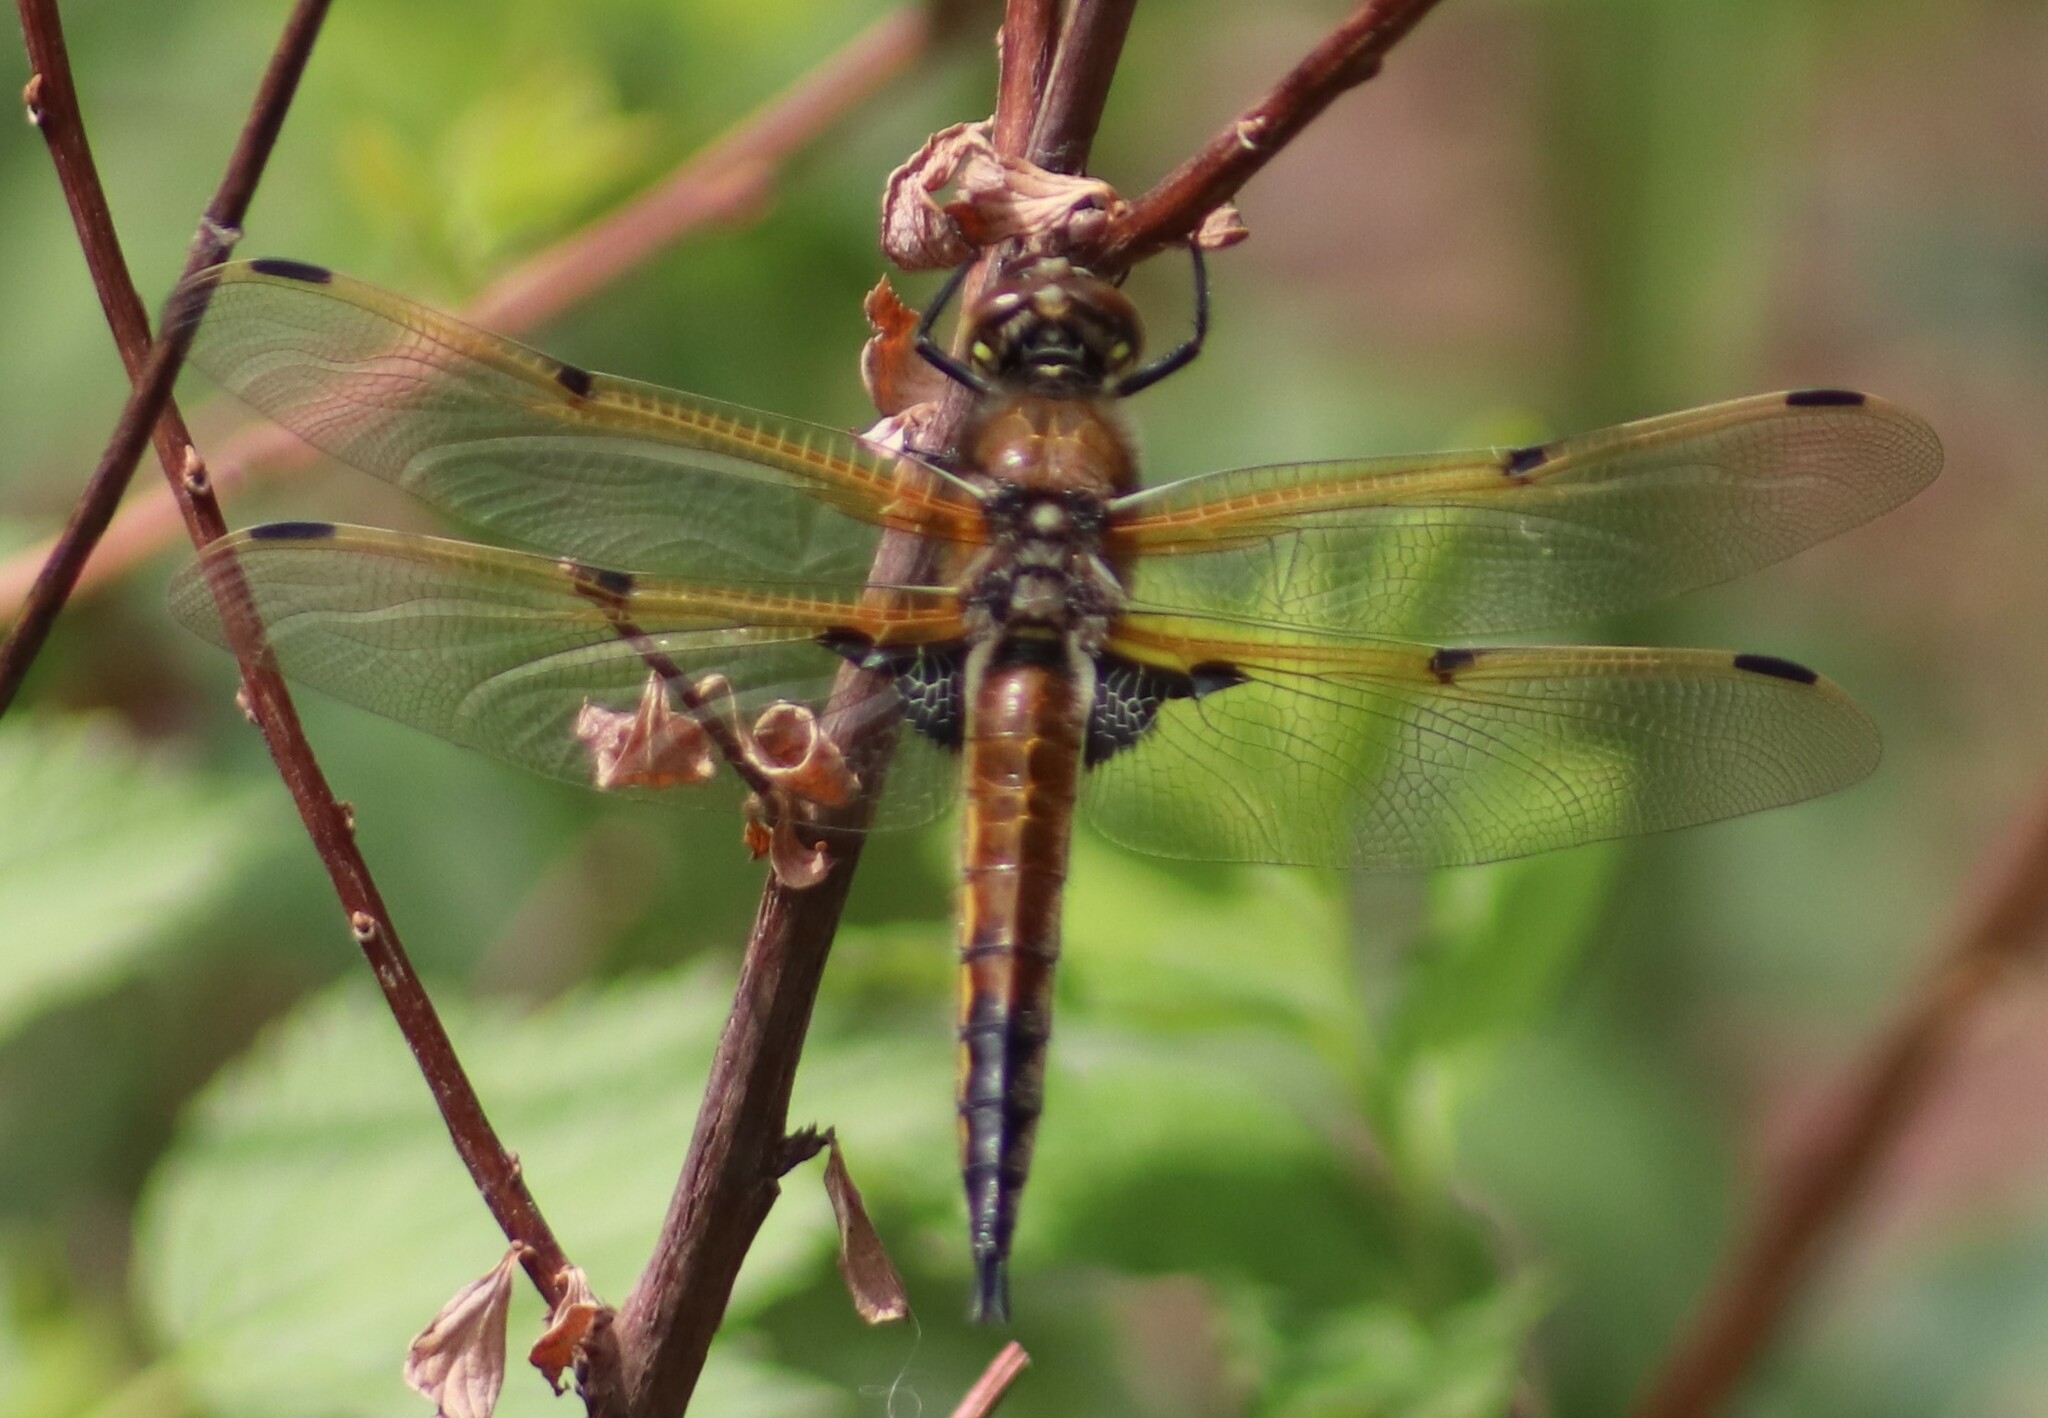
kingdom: Animalia
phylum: Arthropoda
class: Insecta
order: Odonata
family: Libellulidae
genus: Libellula
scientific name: Libellula quadrimaculata
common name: Four-spotted chaser
